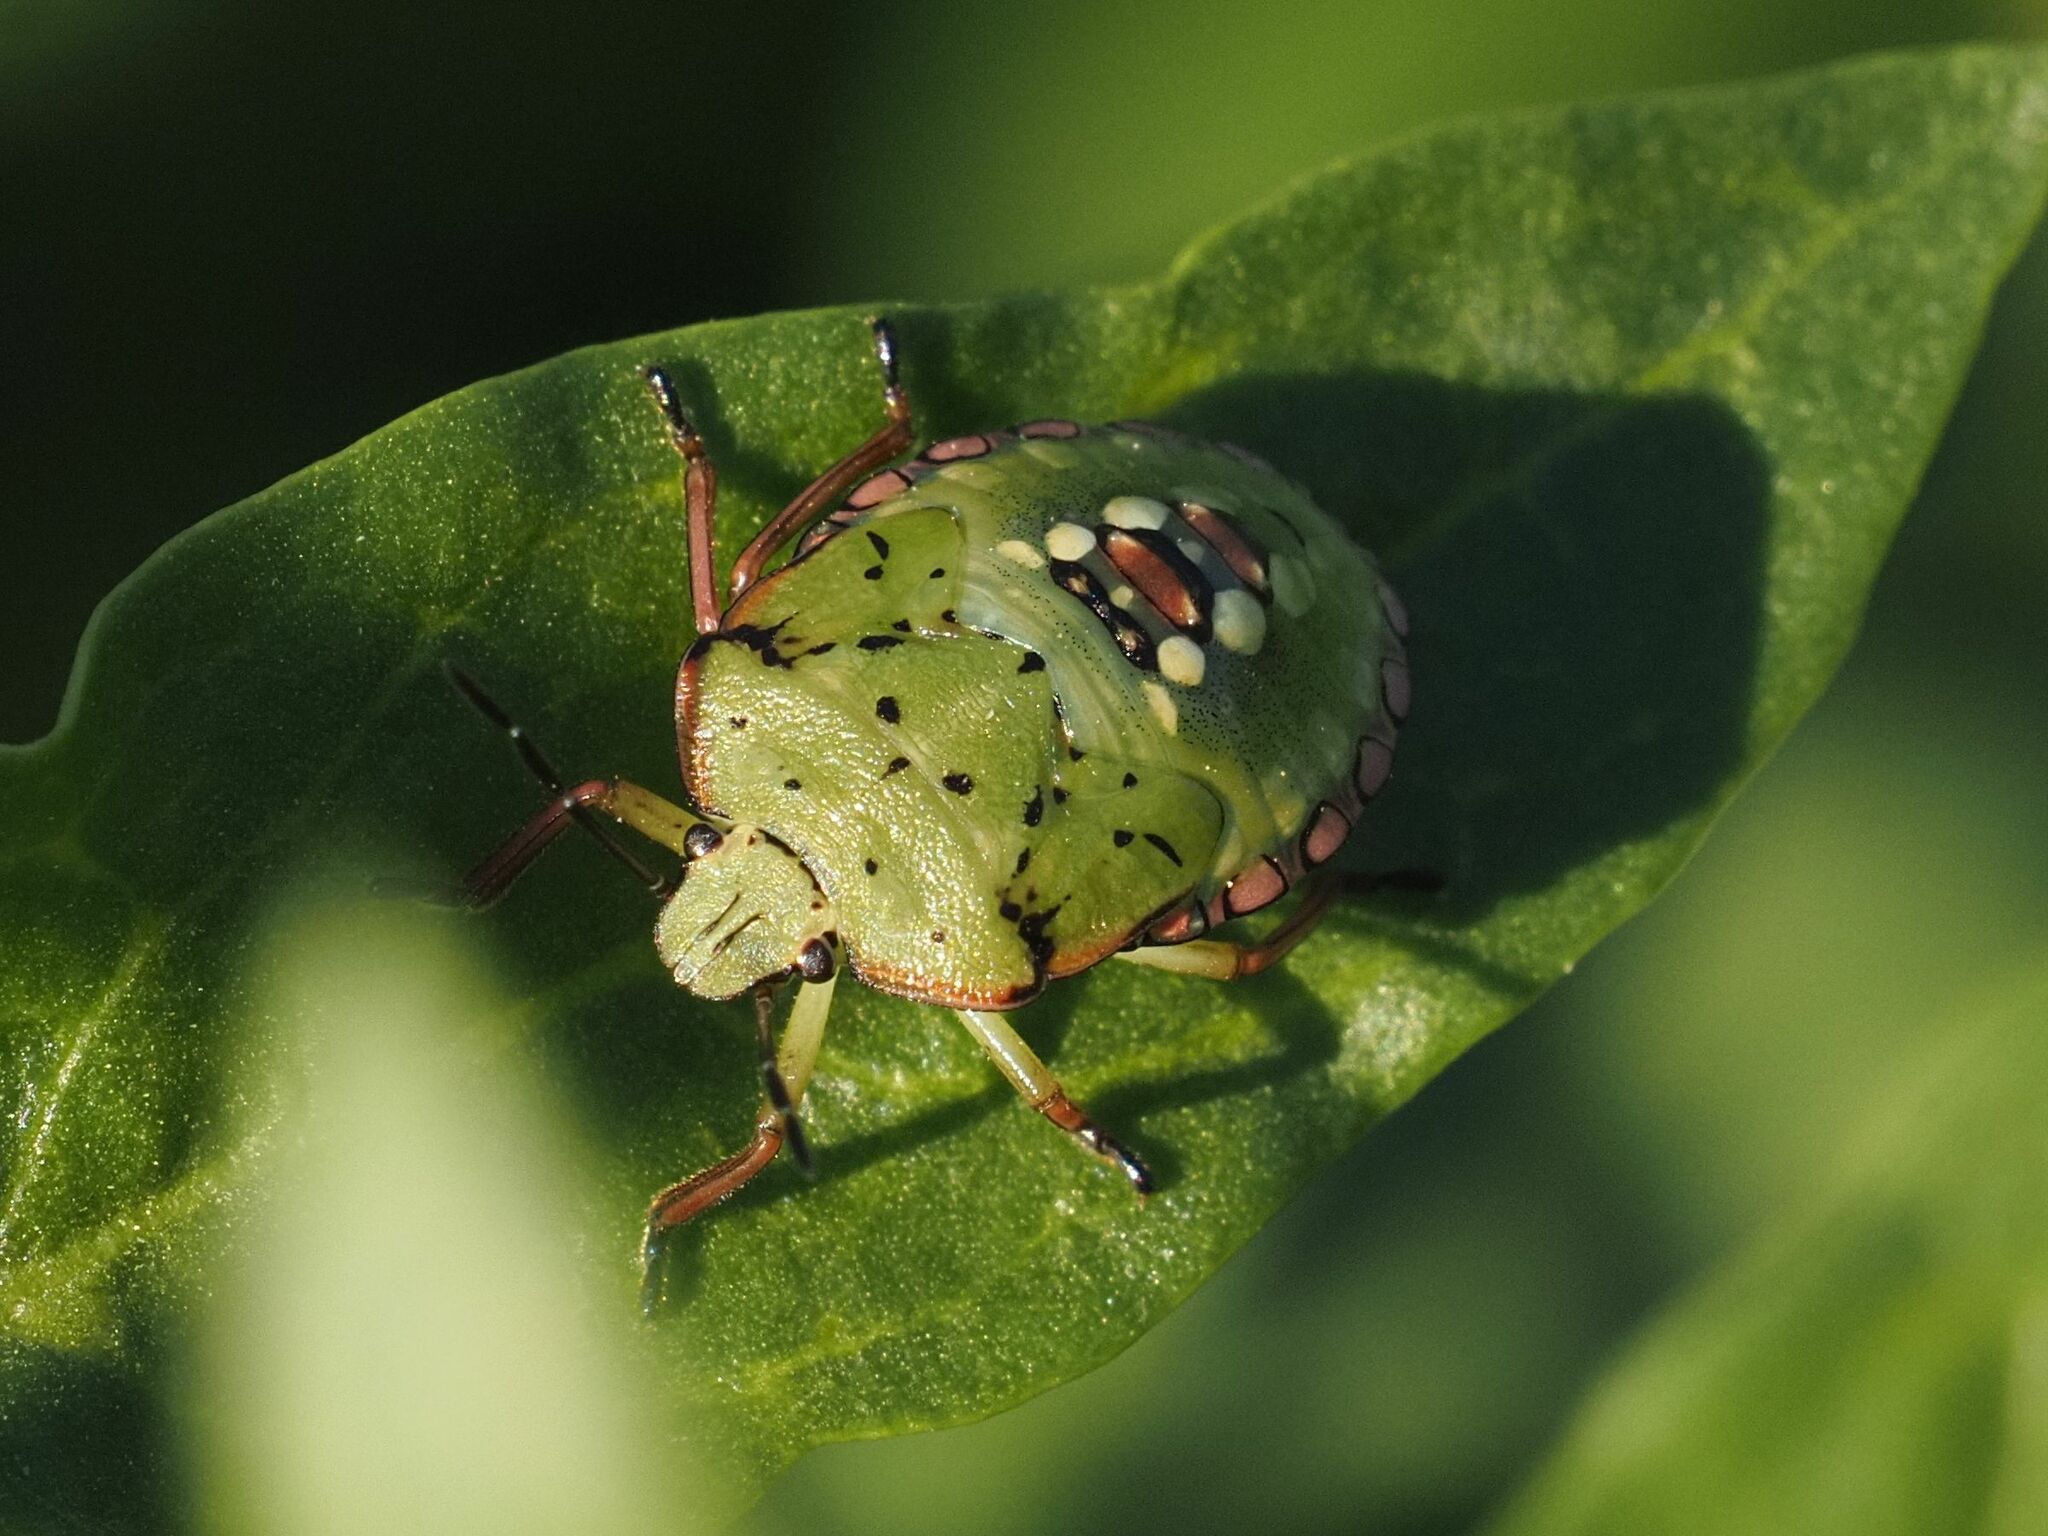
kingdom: Animalia
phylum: Arthropoda
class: Insecta
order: Hemiptera
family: Pentatomidae
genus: Nezara
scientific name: Nezara viridula
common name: Southern green stink bug
